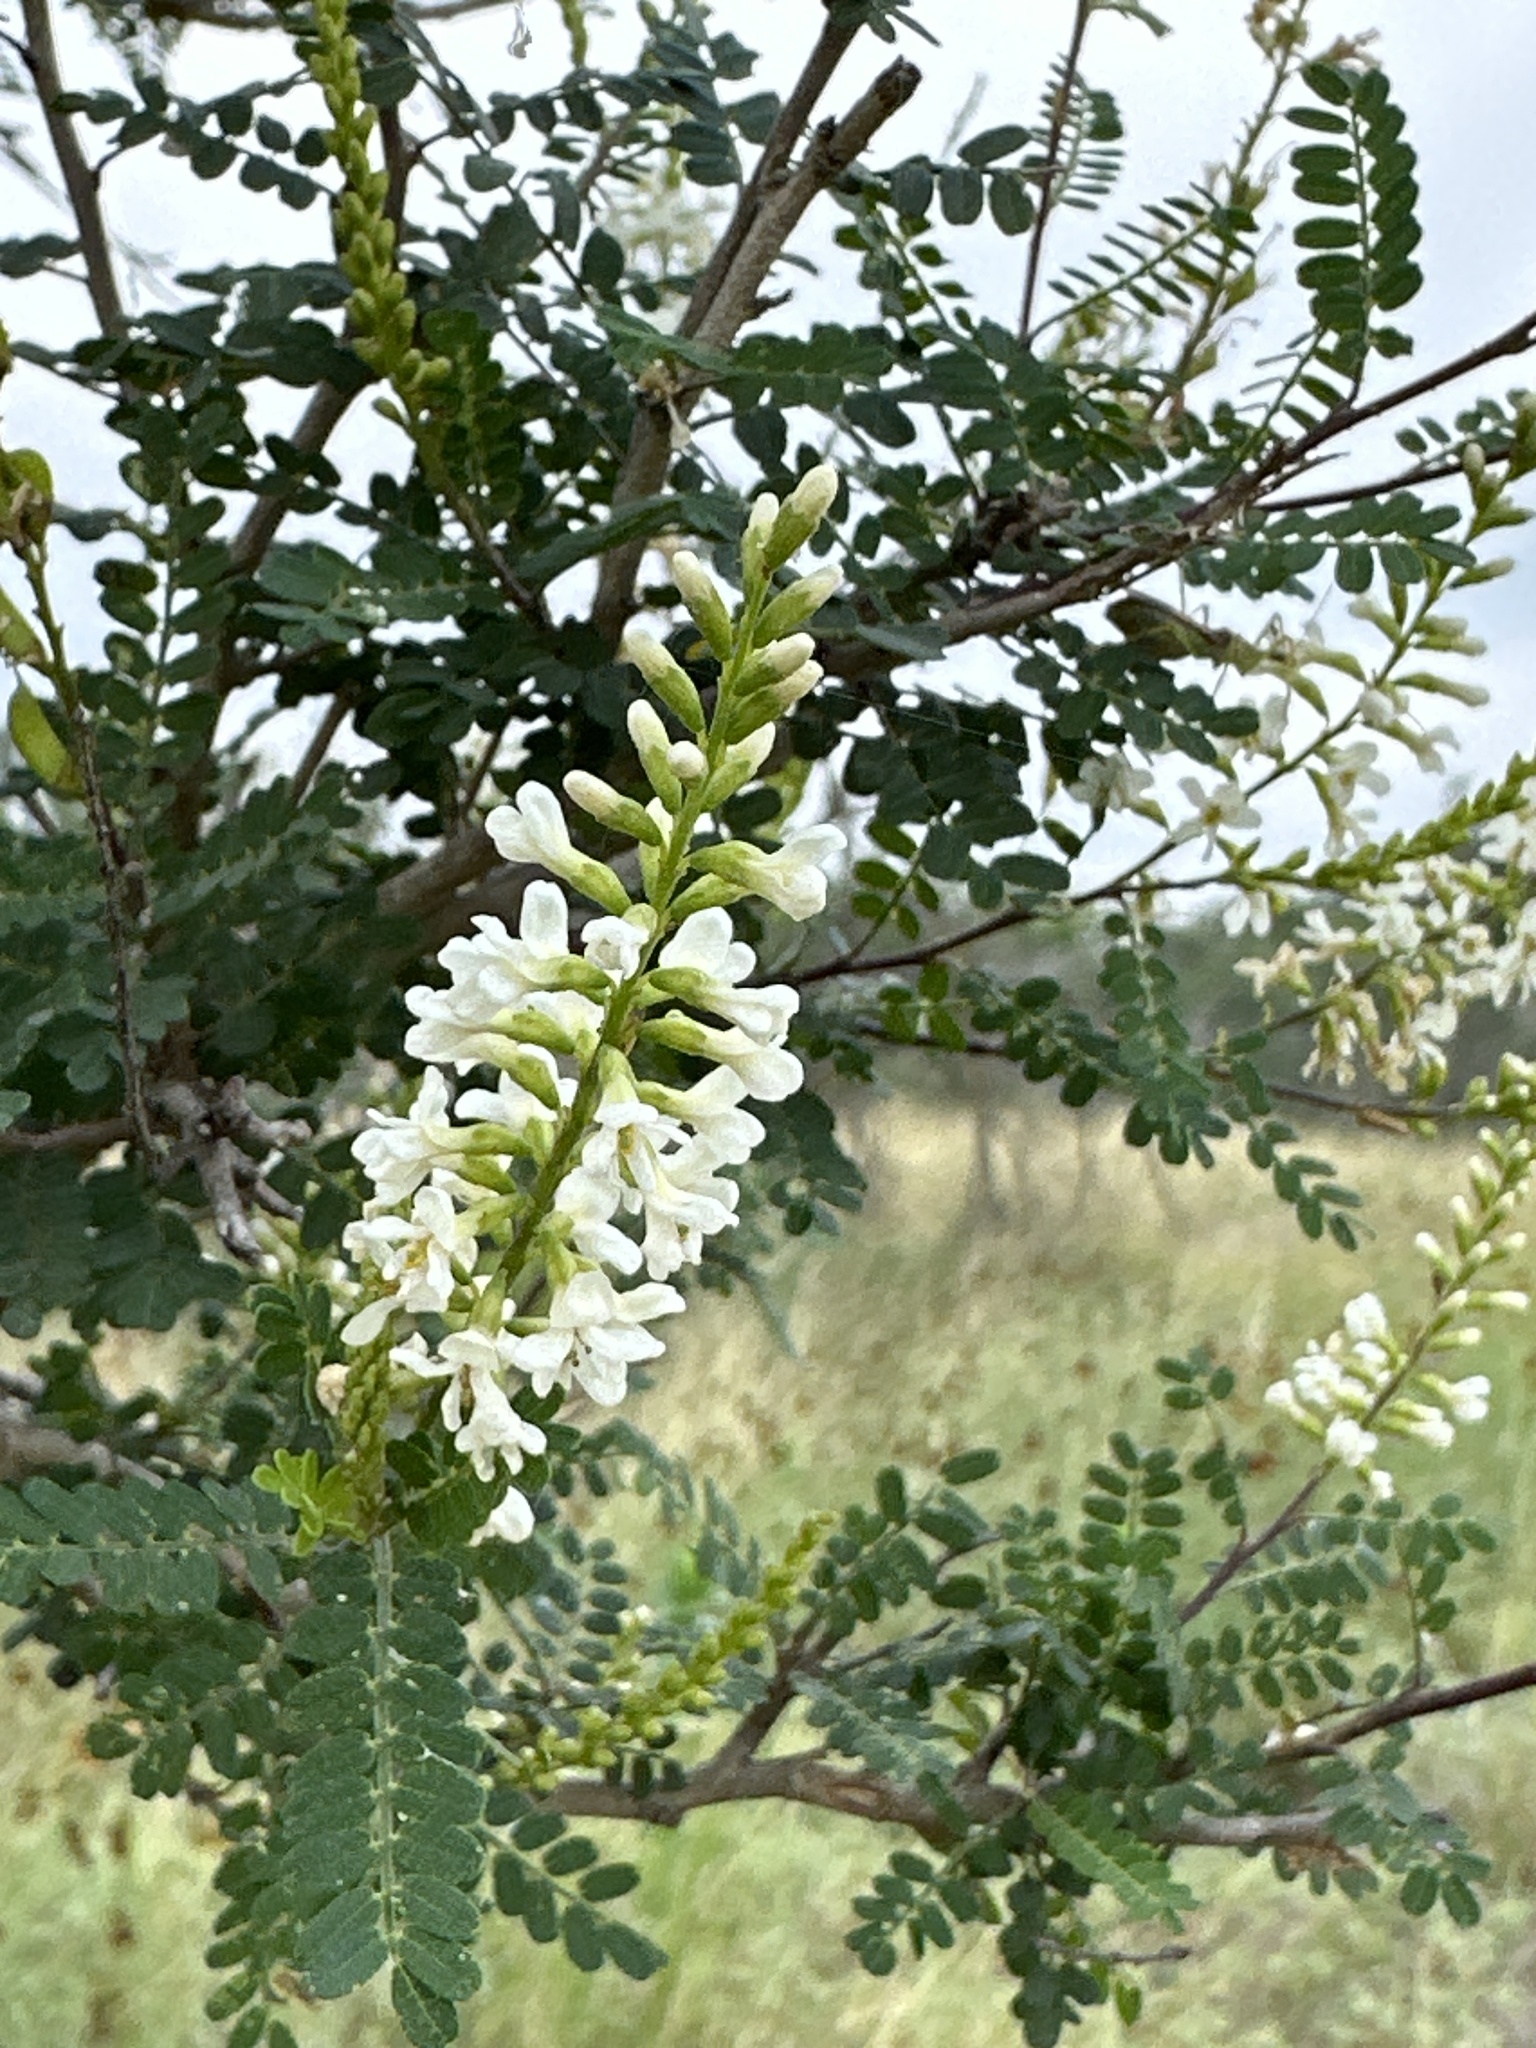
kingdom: Plantae
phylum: Tracheophyta
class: Magnoliopsida
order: Fabales
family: Fabaceae
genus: Eysenhardtia
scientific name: Eysenhardtia texana
